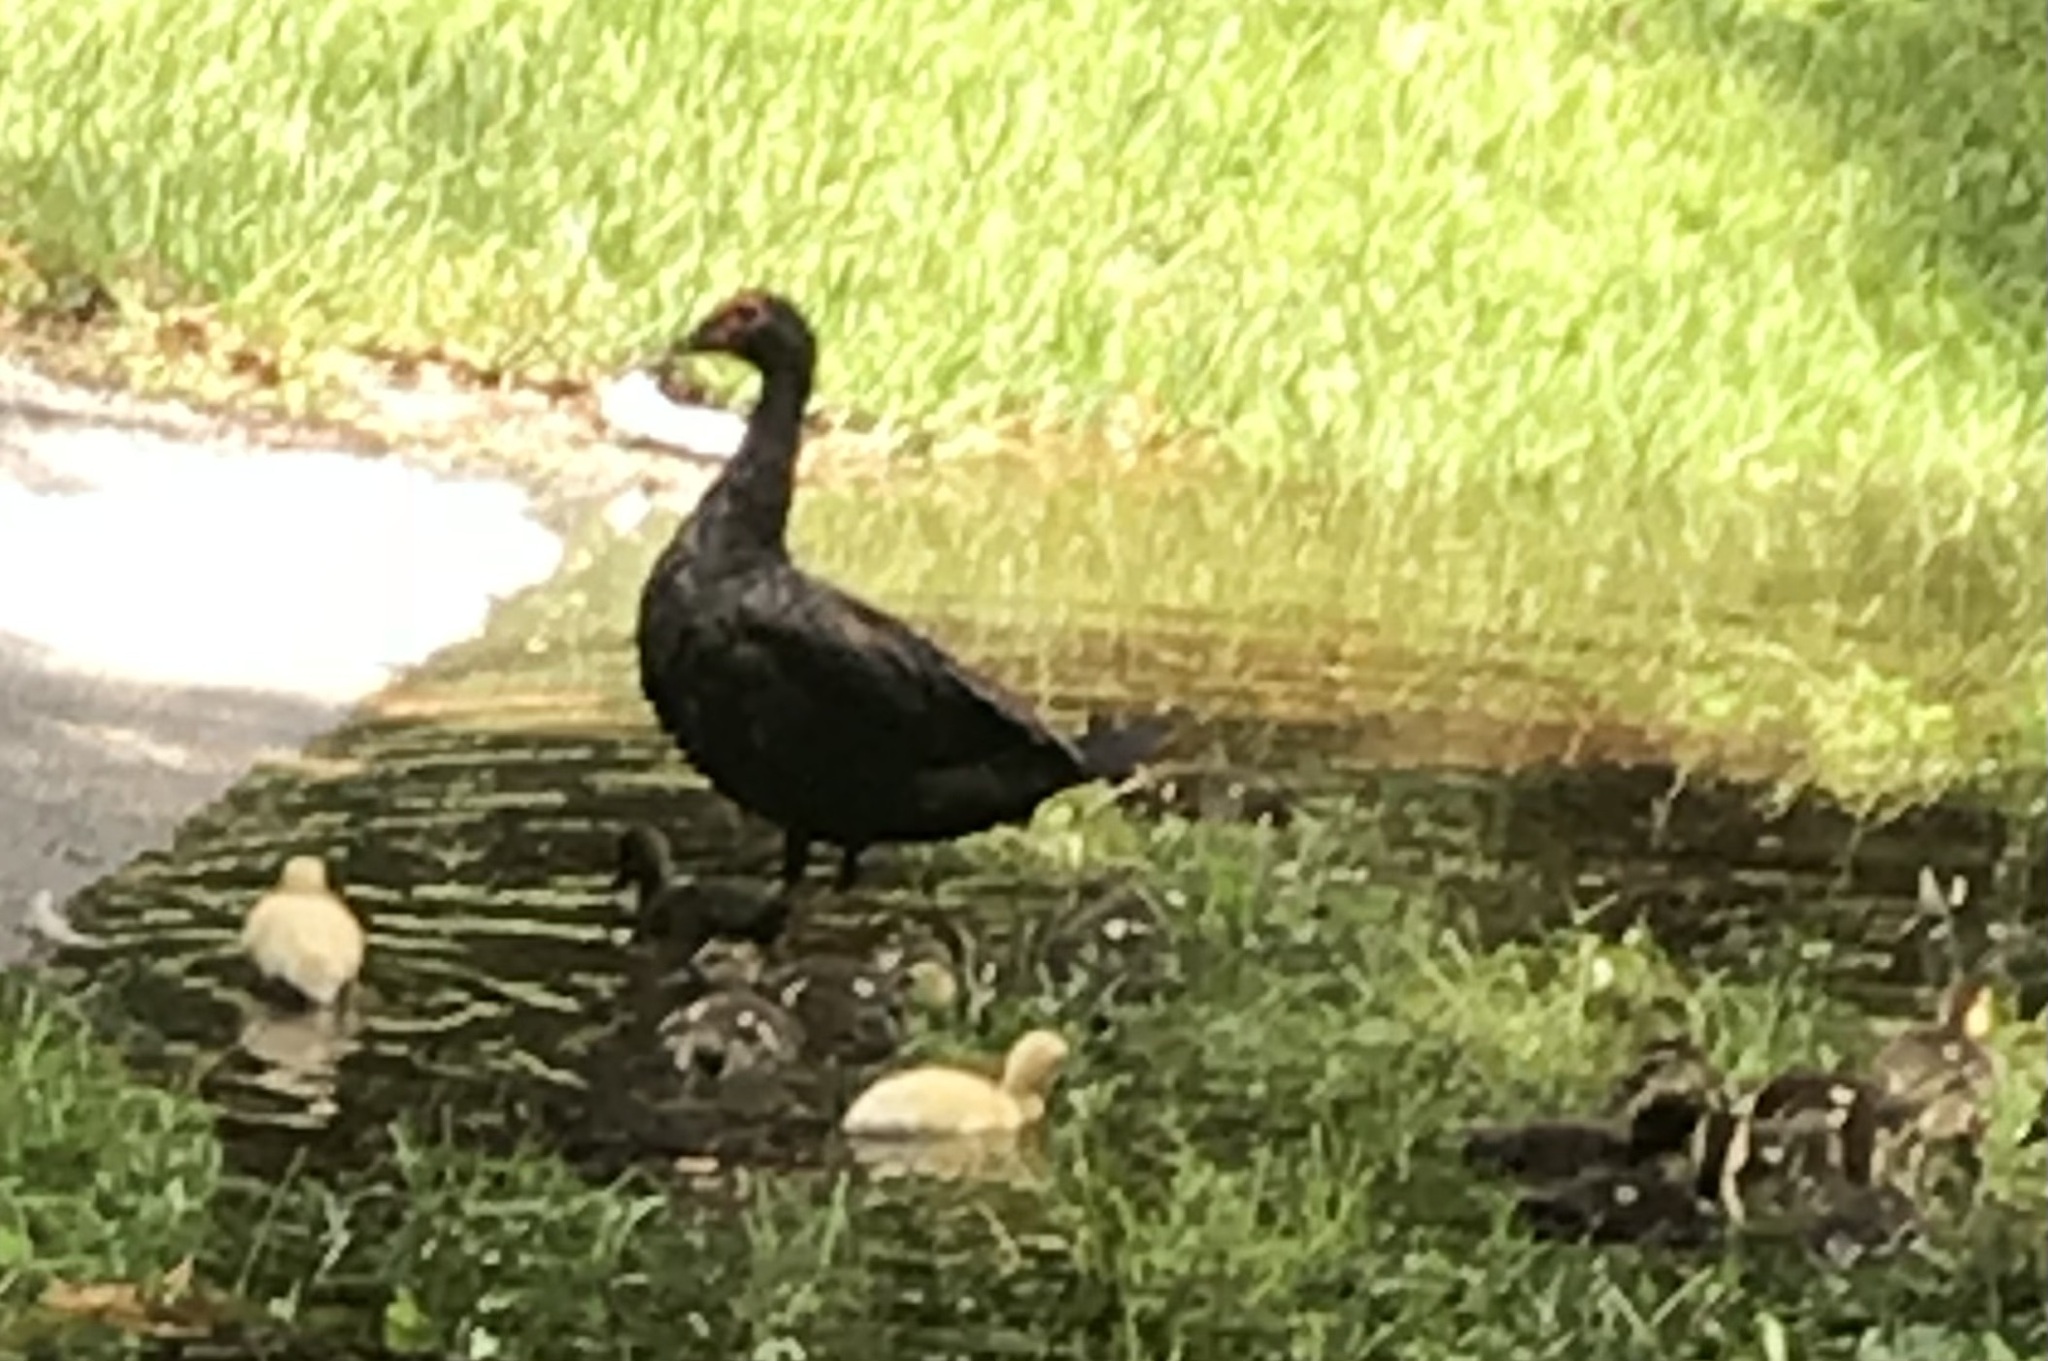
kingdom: Animalia
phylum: Chordata
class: Aves
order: Anseriformes
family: Anatidae
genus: Cairina
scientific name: Cairina moschata
